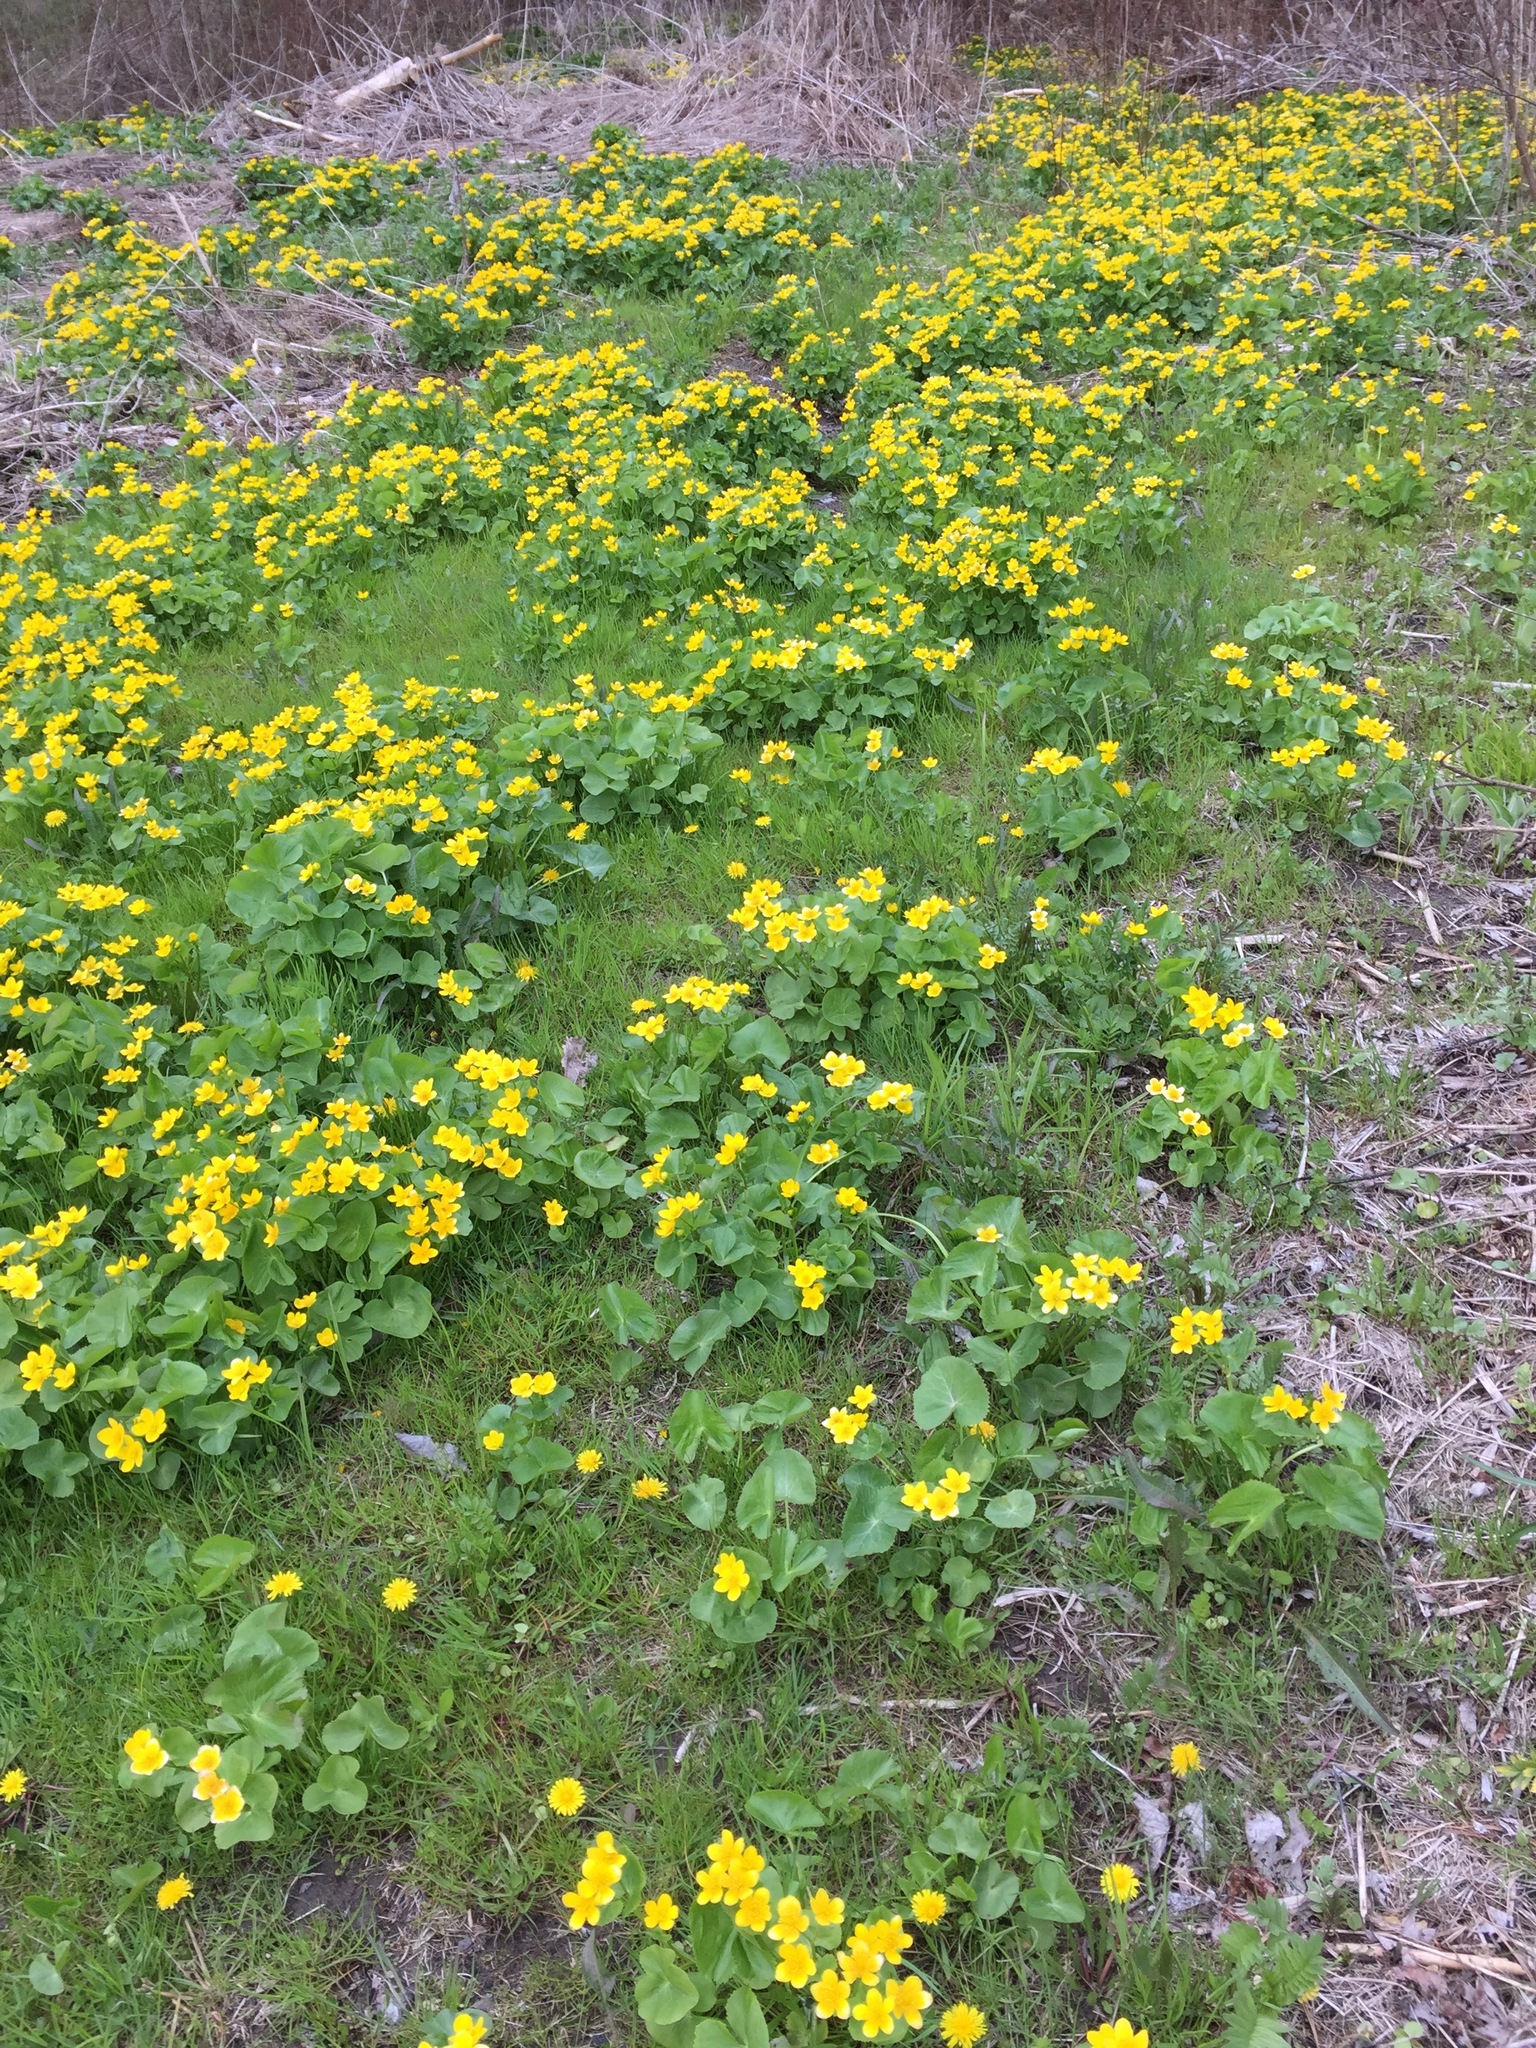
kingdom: Plantae
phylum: Tracheophyta
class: Magnoliopsida
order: Ranunculales
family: Ranunculaceae
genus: Caltha
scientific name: Caltha palustris
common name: Marsh marigold
